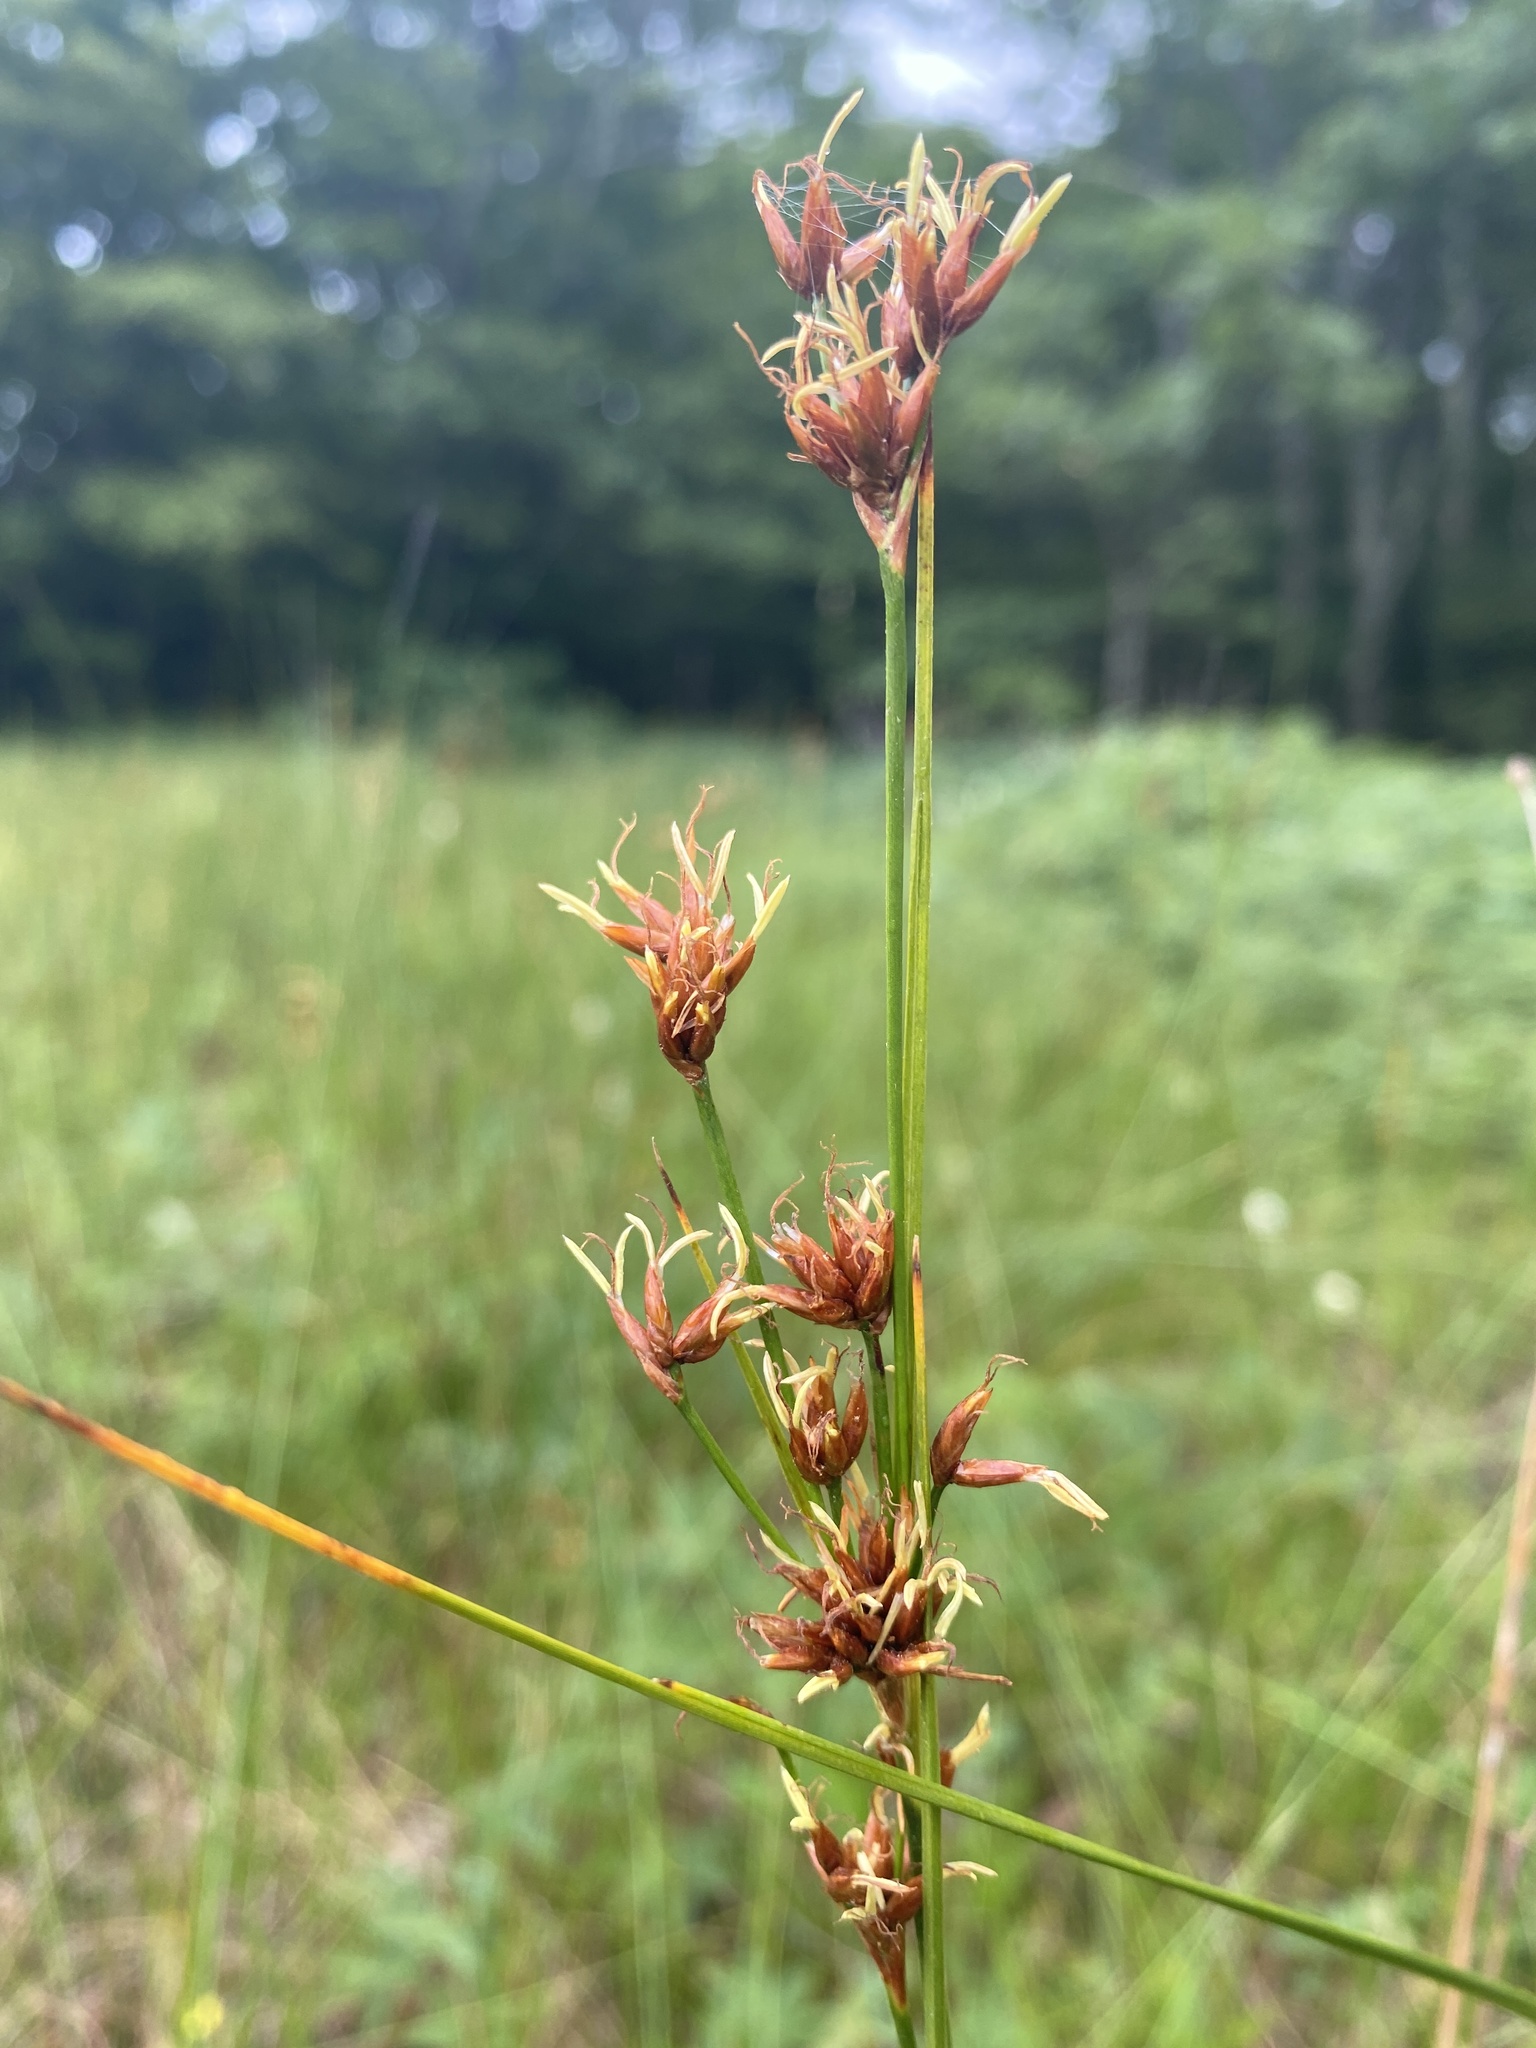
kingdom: Plantae
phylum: Tracheophyta
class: Liliopsida
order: Poales
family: Cyperaceae
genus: Cladium
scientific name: Cladium mariscoides
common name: Smooth sawgrass
